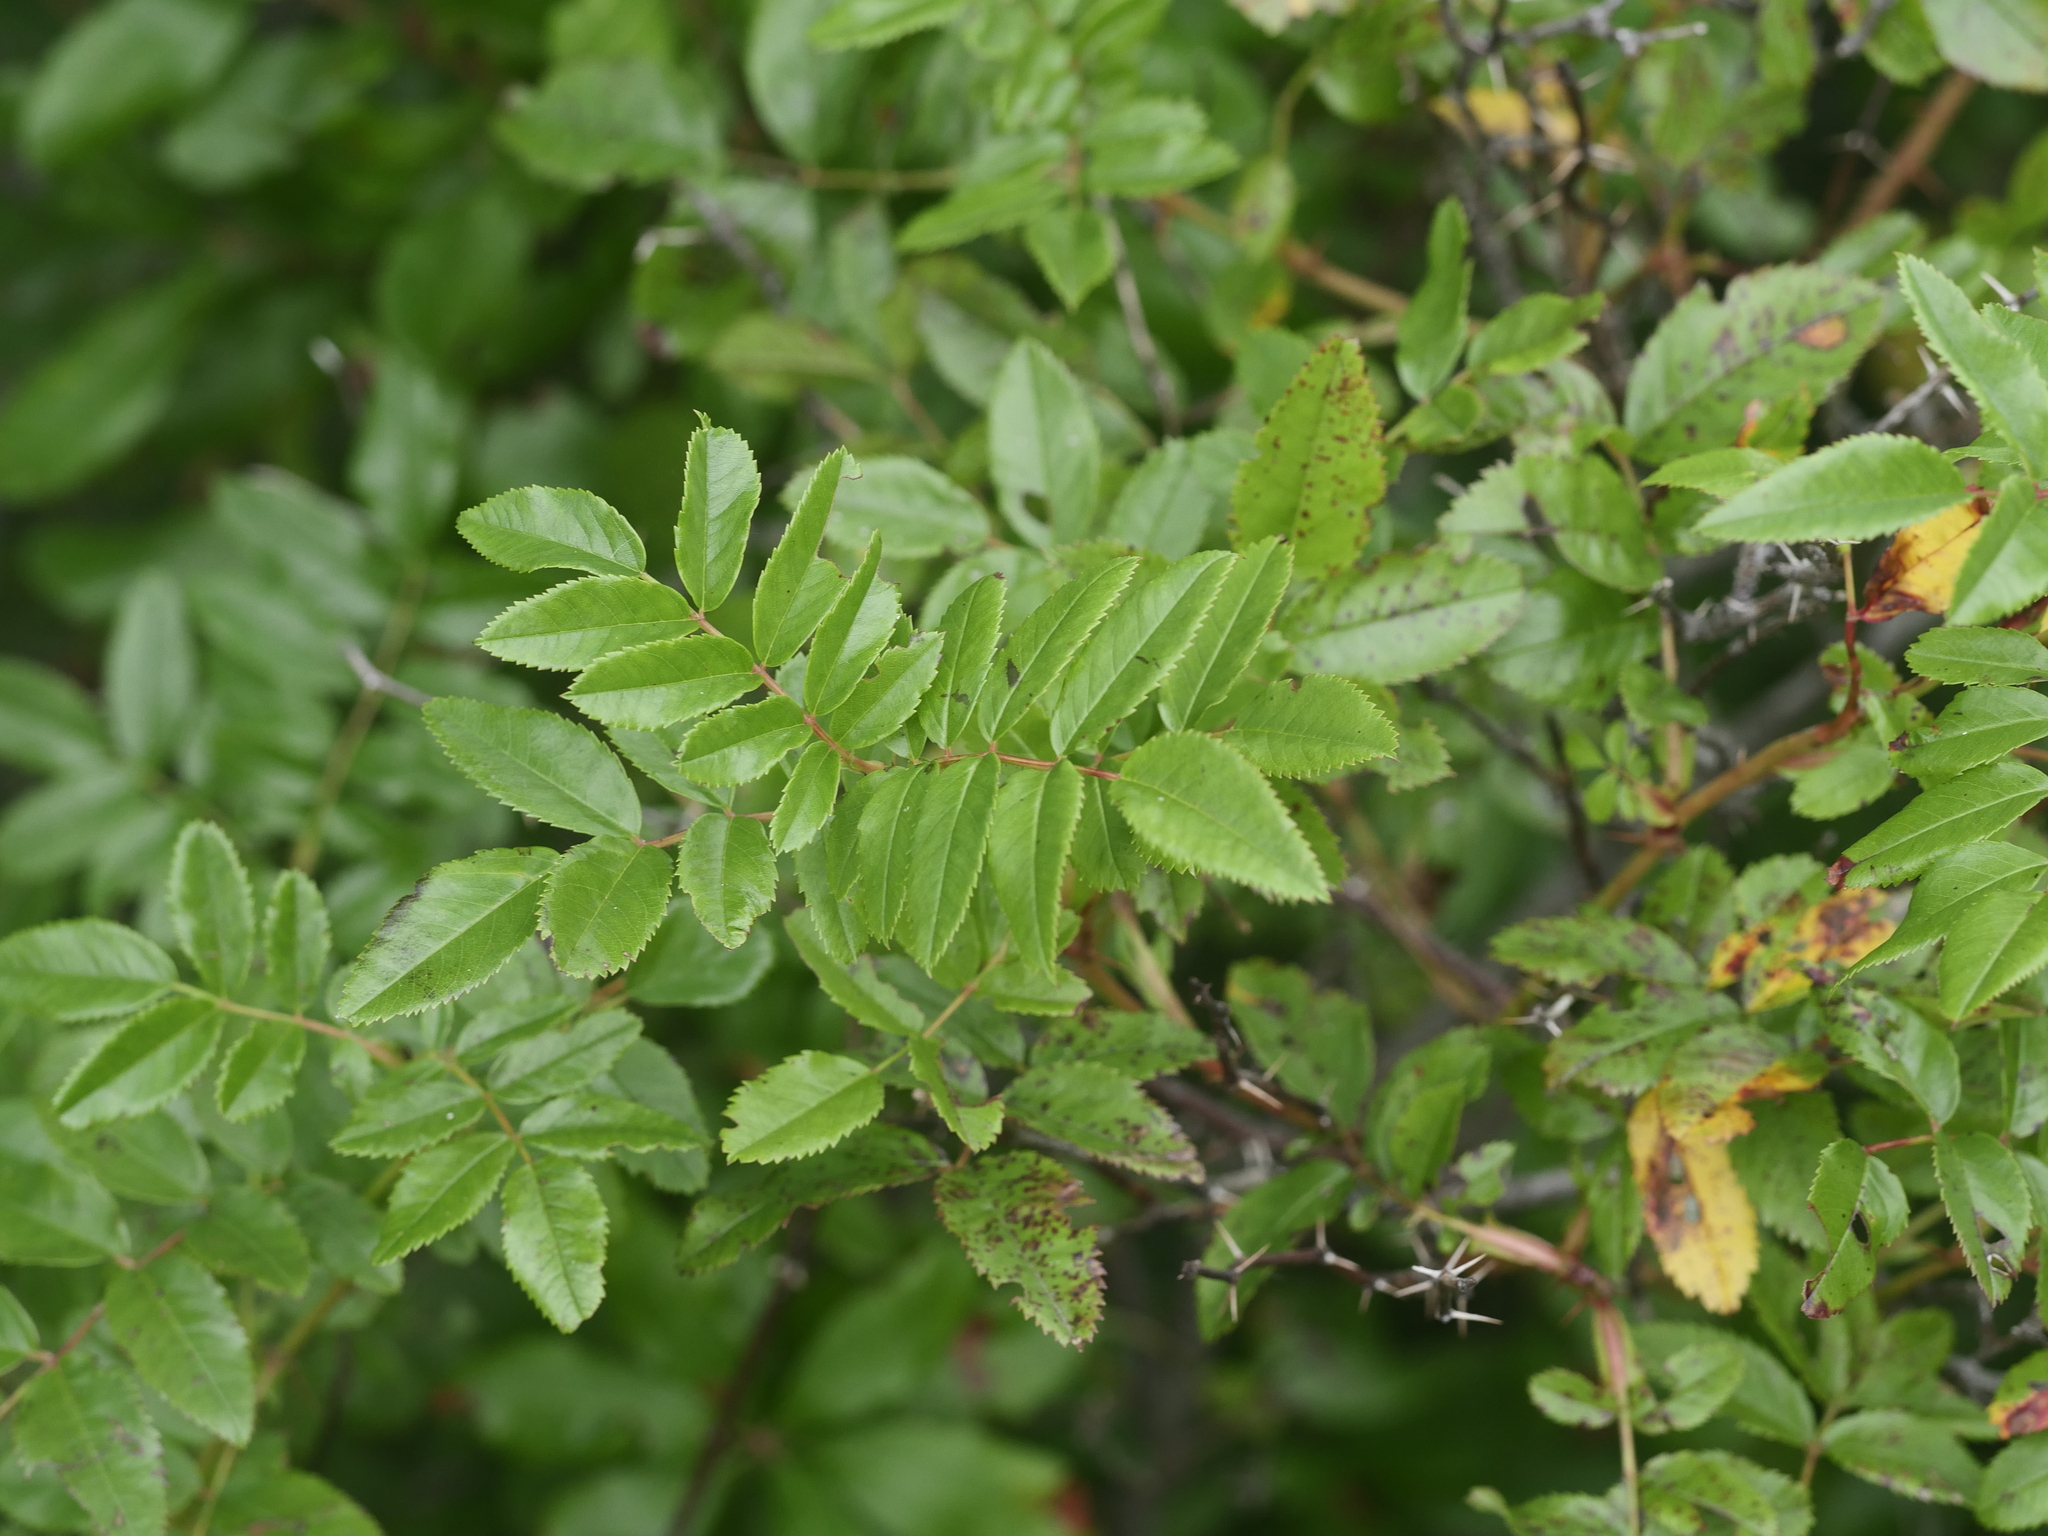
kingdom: Plantae
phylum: Tracheophyta
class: Magnoliopsida
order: Rosales
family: Rosaceae
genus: Rosa
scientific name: Rosa virginiana
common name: Virginian rose
